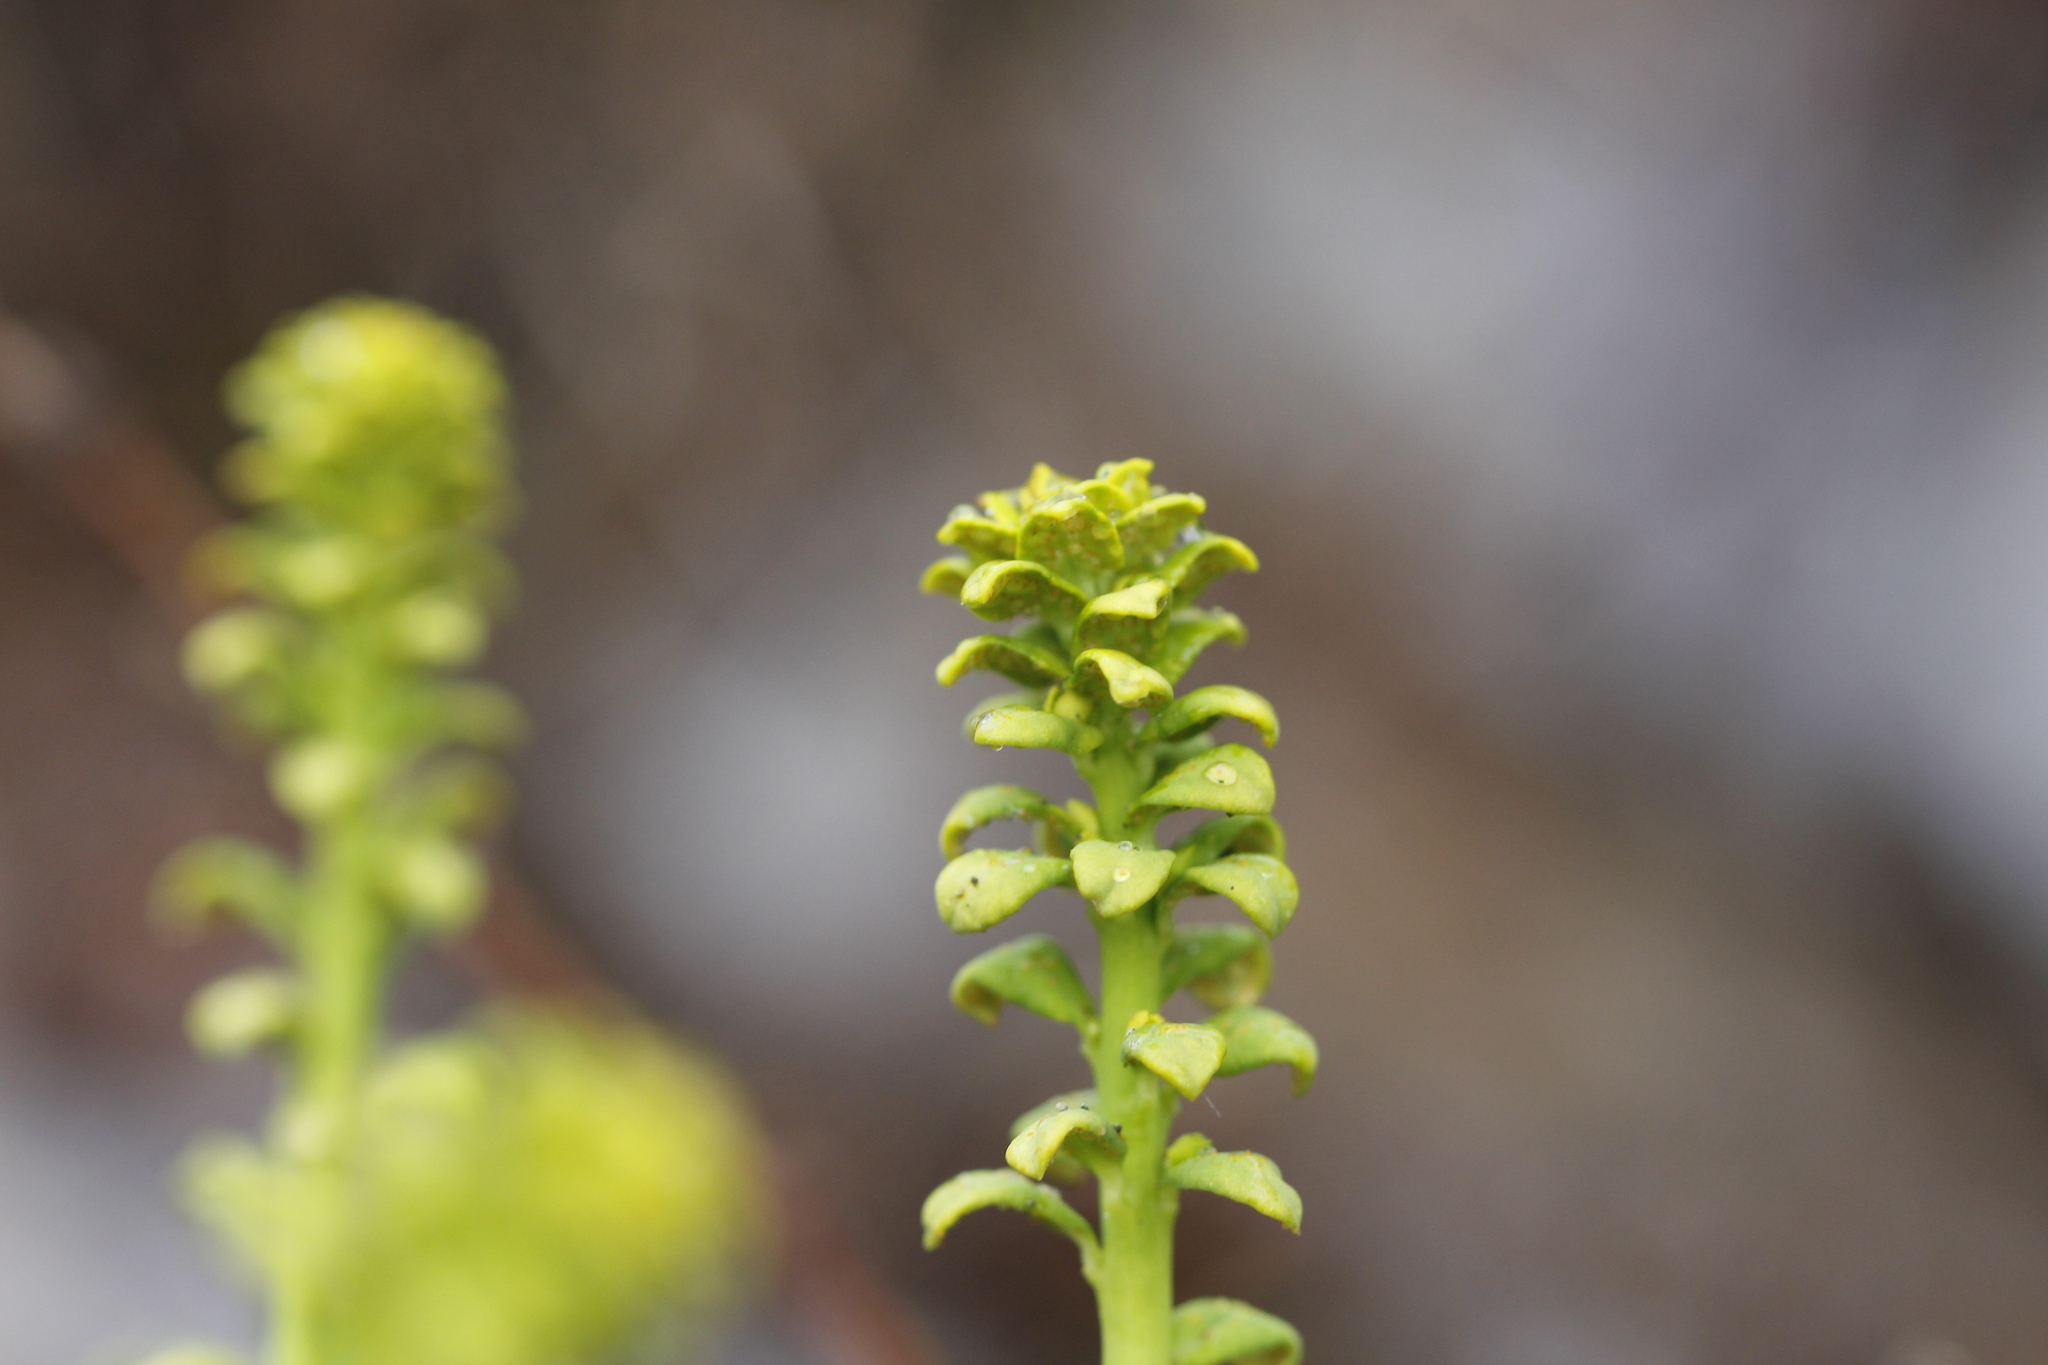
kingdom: Plantae
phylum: Tracheophyta
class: Magnoliopsida
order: Malpighiales
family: Euphorbiaceae
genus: Euphorbia
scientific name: Euphorbia cyparissias
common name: Cypress spurge
